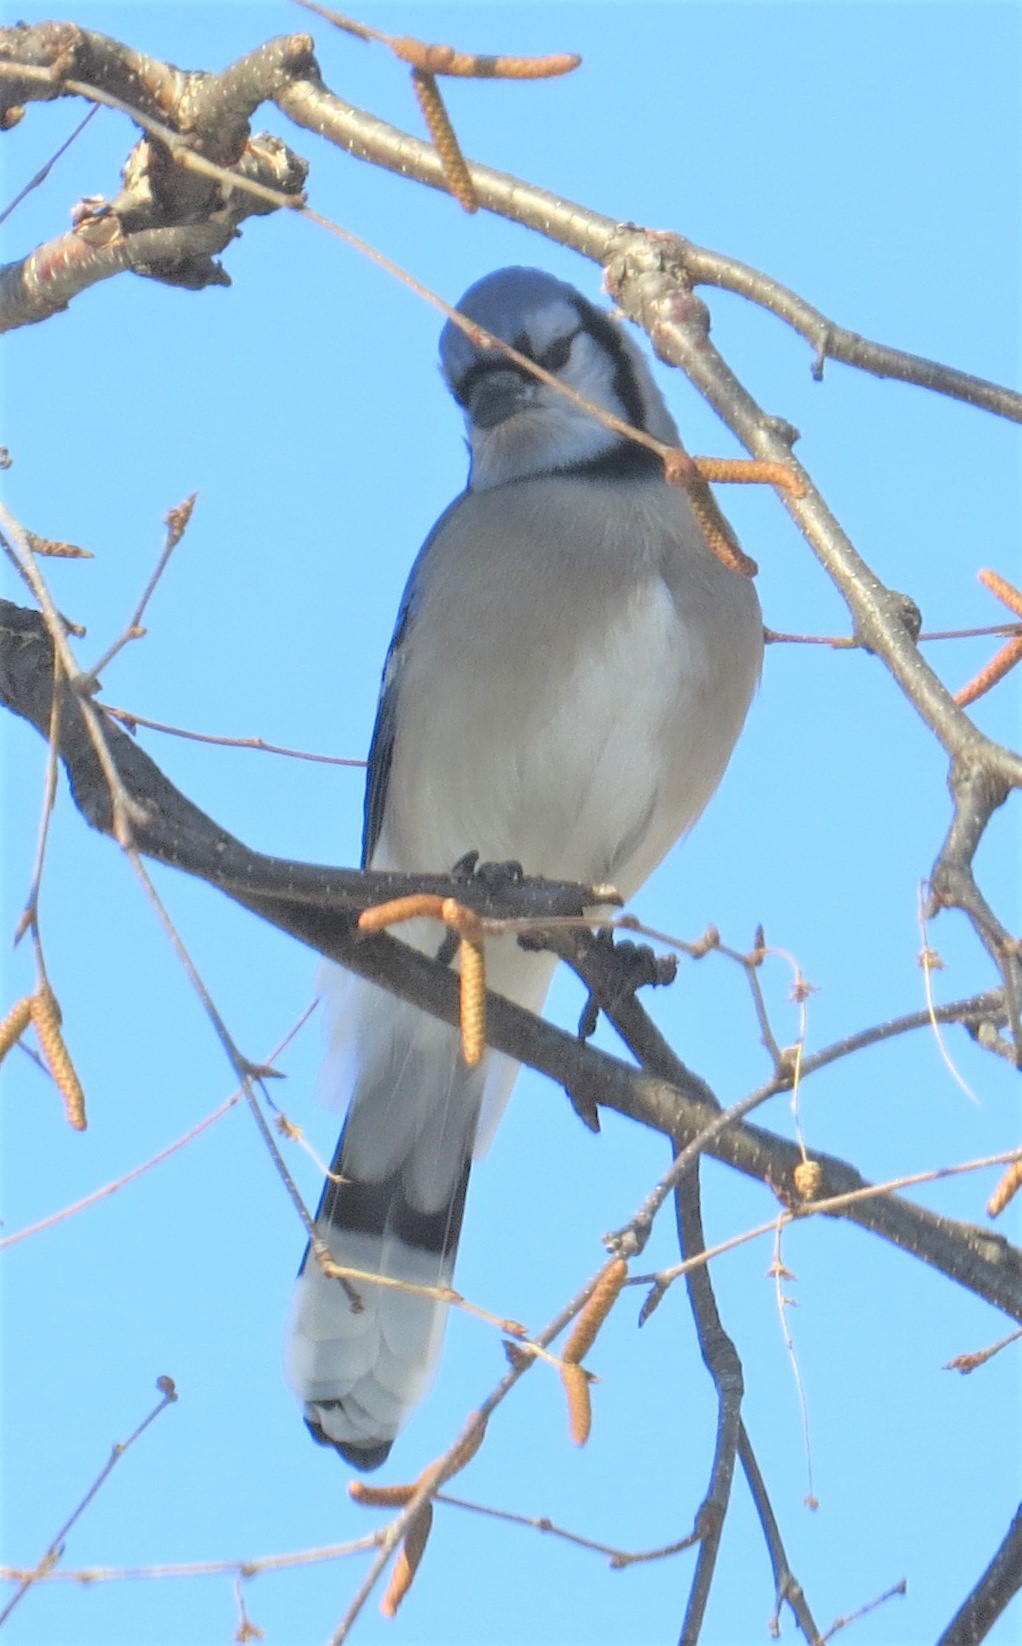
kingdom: Animalia
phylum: Chordata
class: Aves
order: Passeriformes
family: Corvidae
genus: Cyanocitta
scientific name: Cyanocitta cristata
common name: Blue jay
